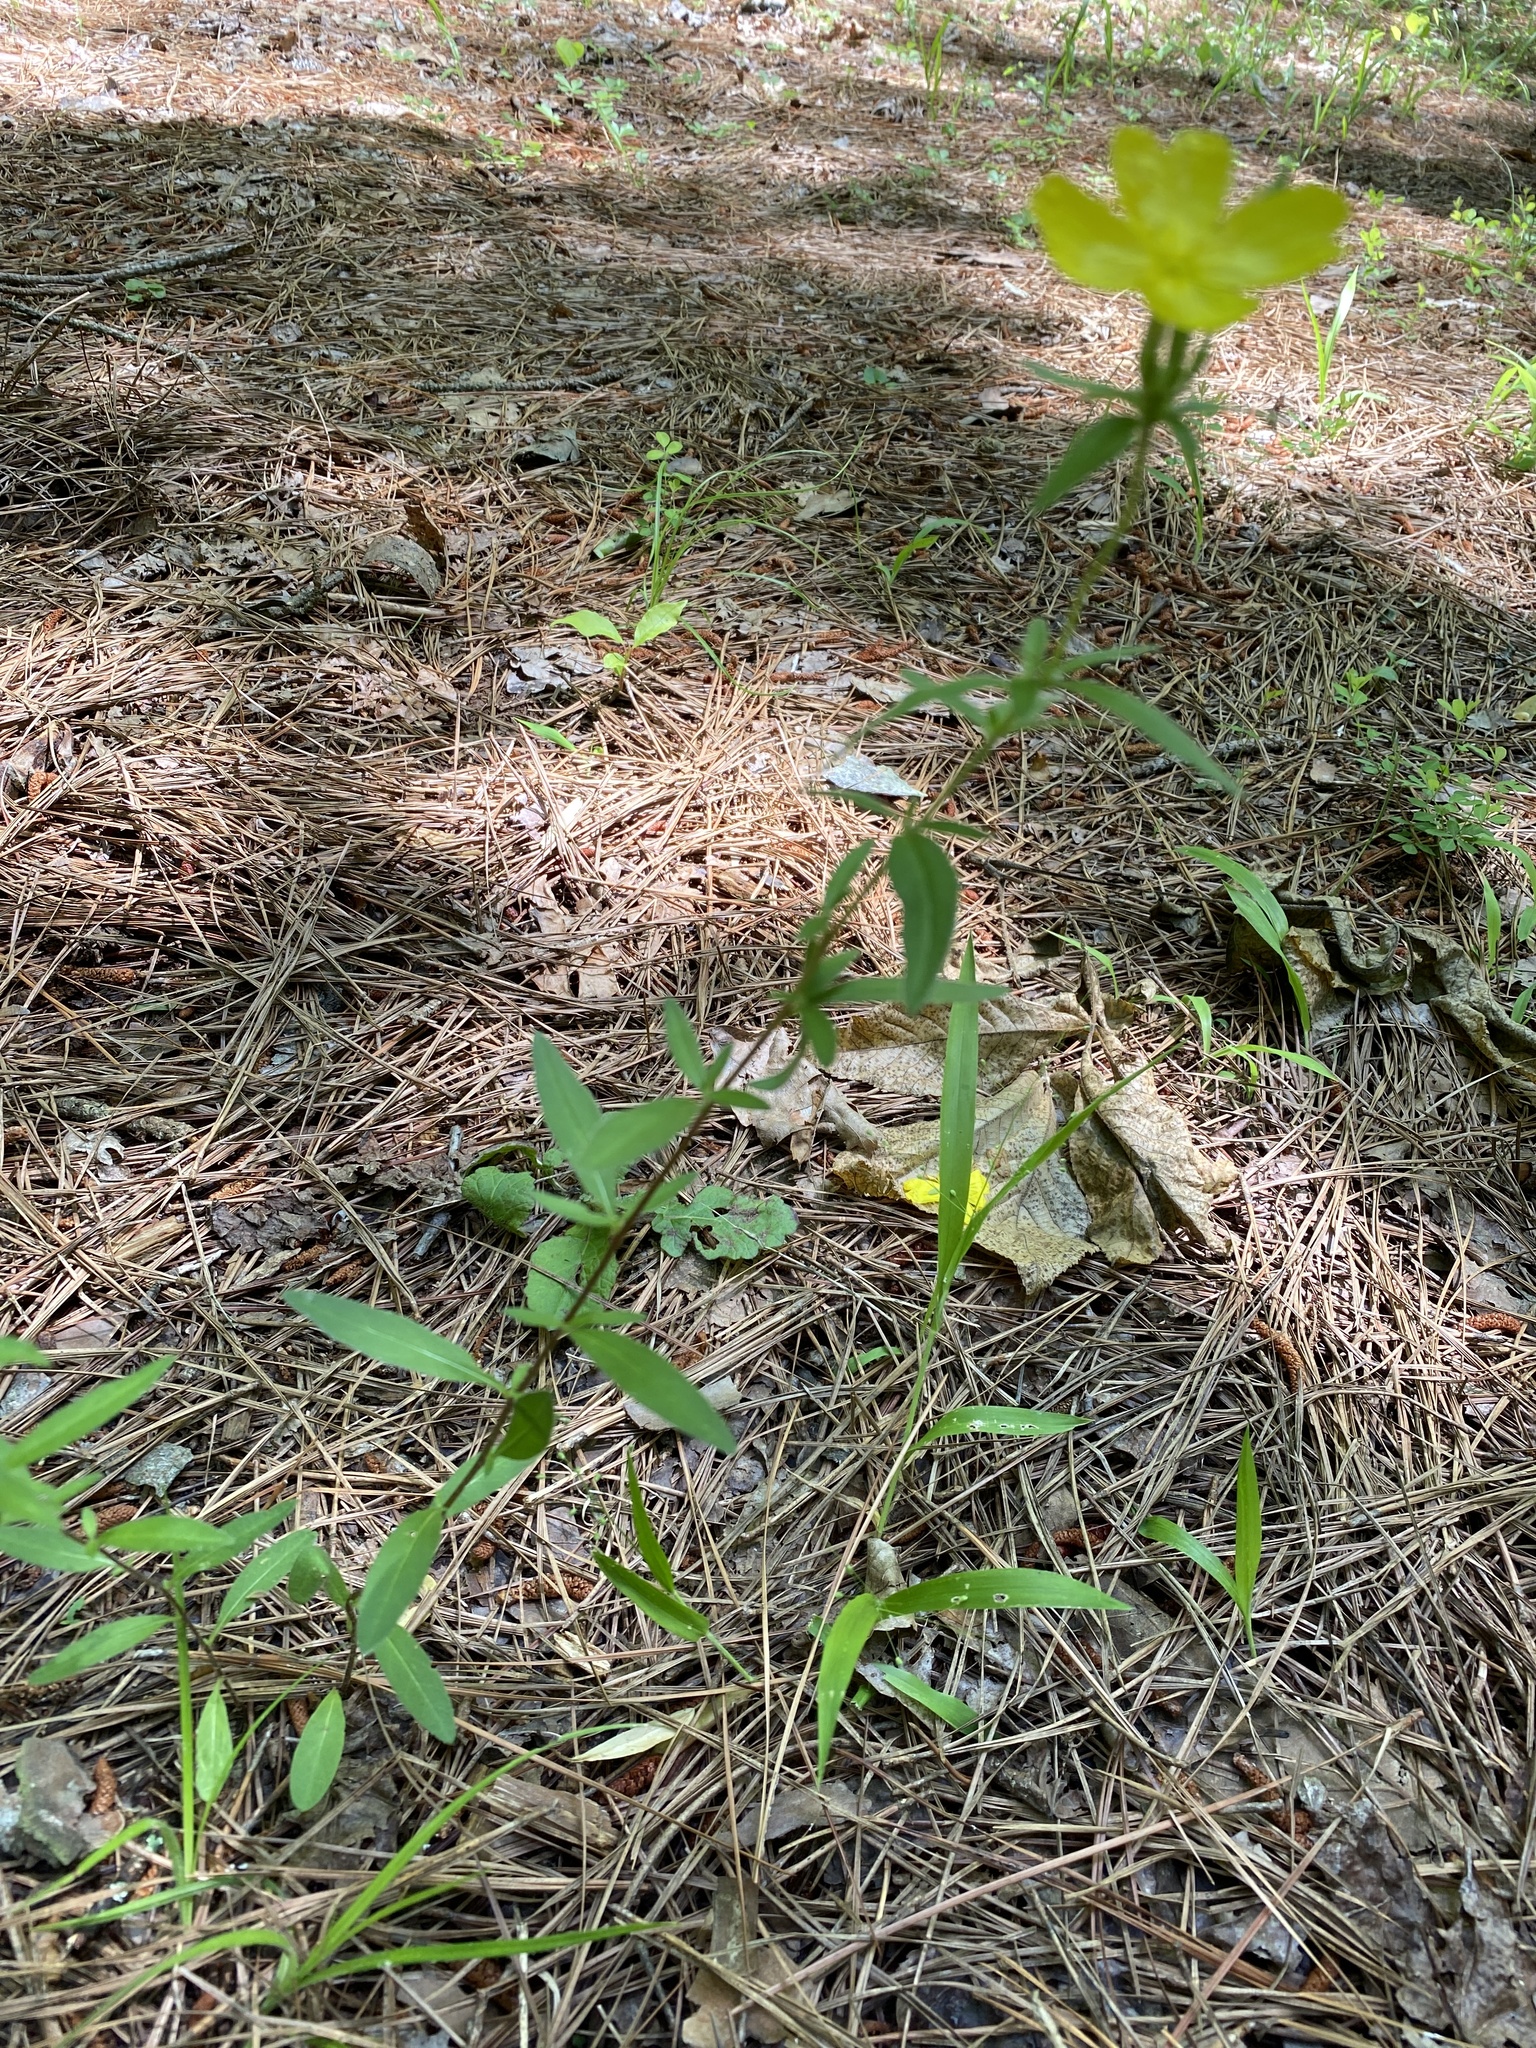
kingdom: Plantae
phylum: Tracheophyta
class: Magnoliopsida
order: Myrtales
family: Onagraceae
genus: Oenothera
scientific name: Oenothera fruticosa
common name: Southern sundrops
